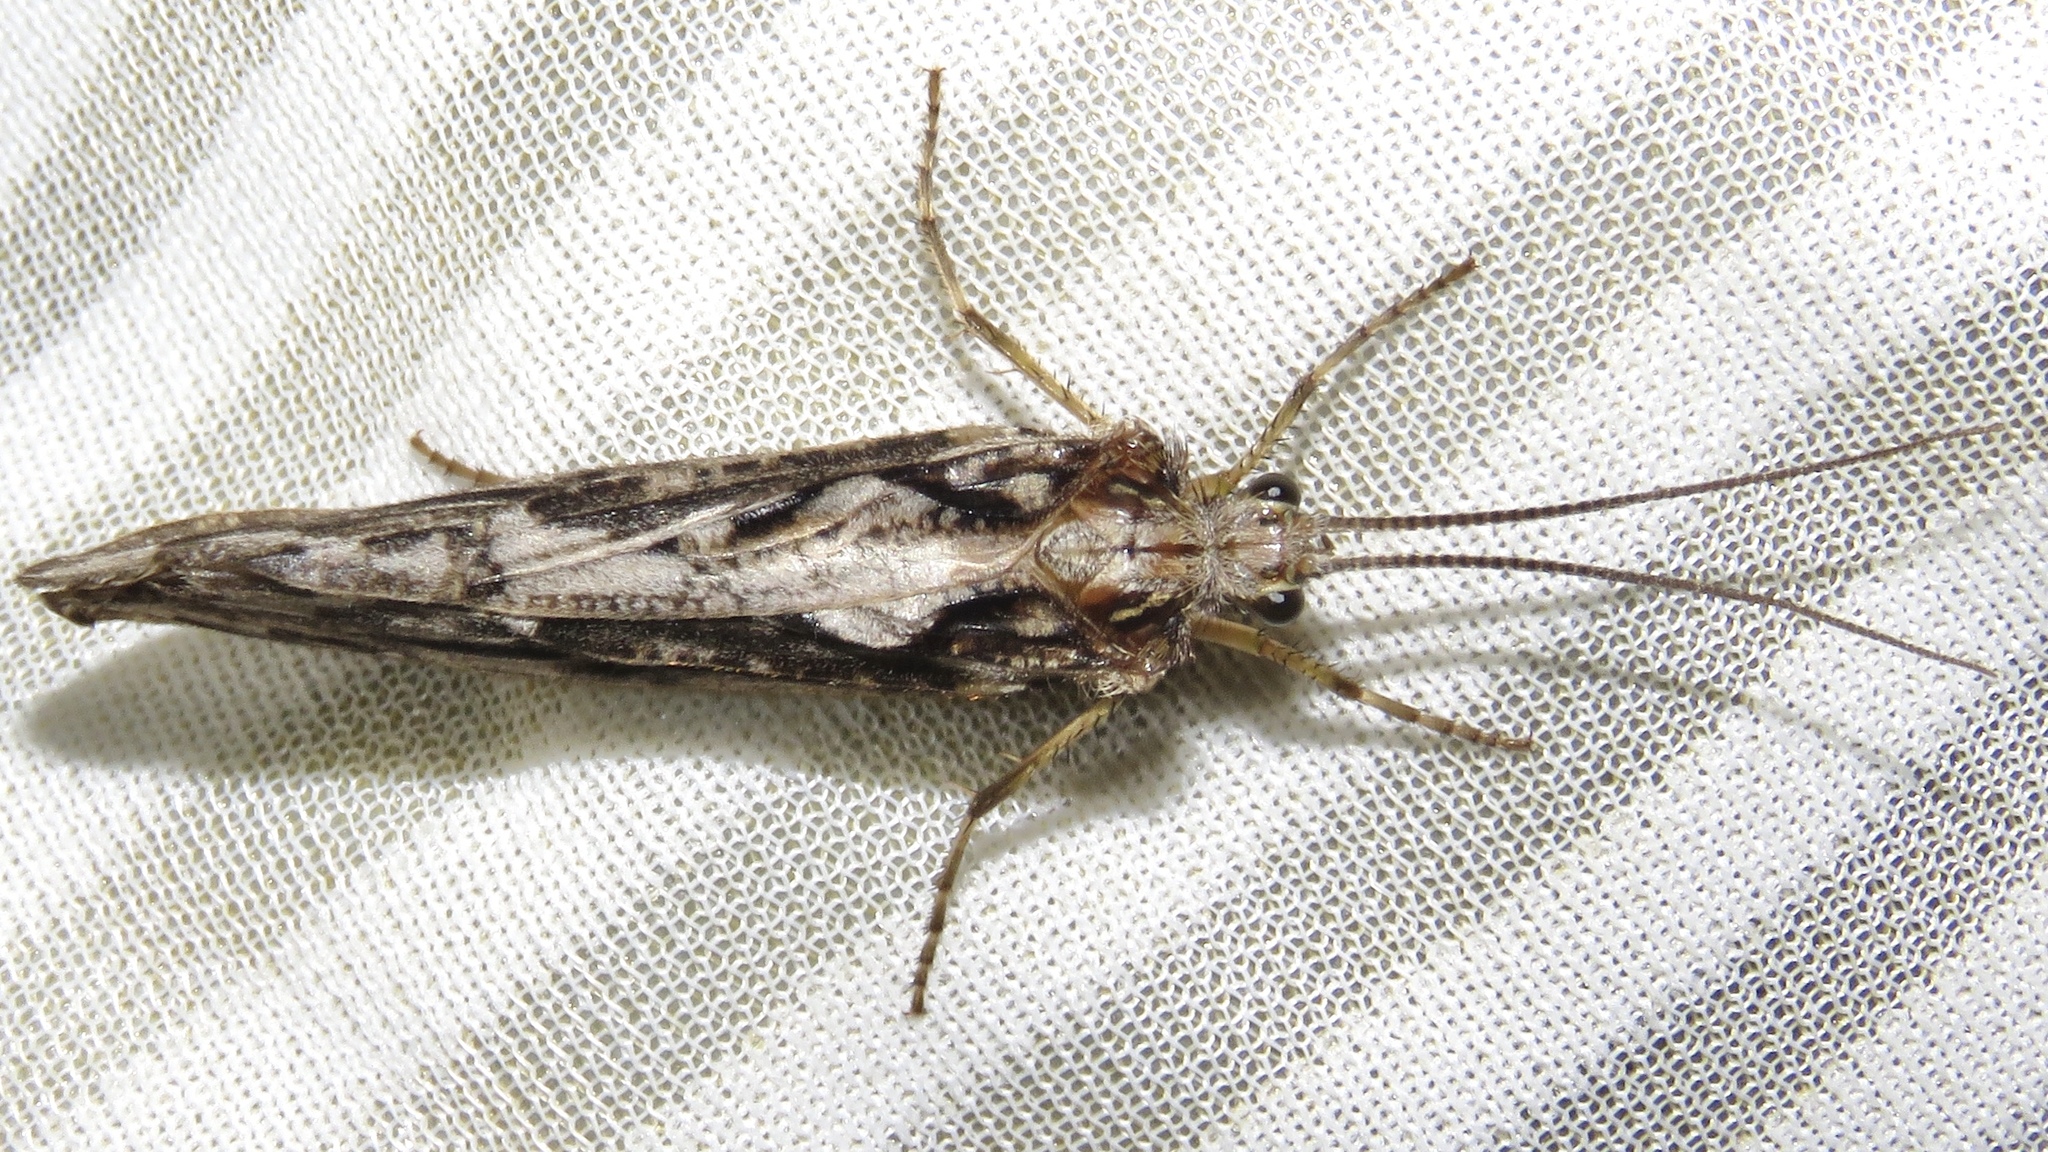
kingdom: Animalia
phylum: Arthropoda
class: Insecta
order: Trichoptera
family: Phryganeidae
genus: Phryganea
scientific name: Phryganea sayi
